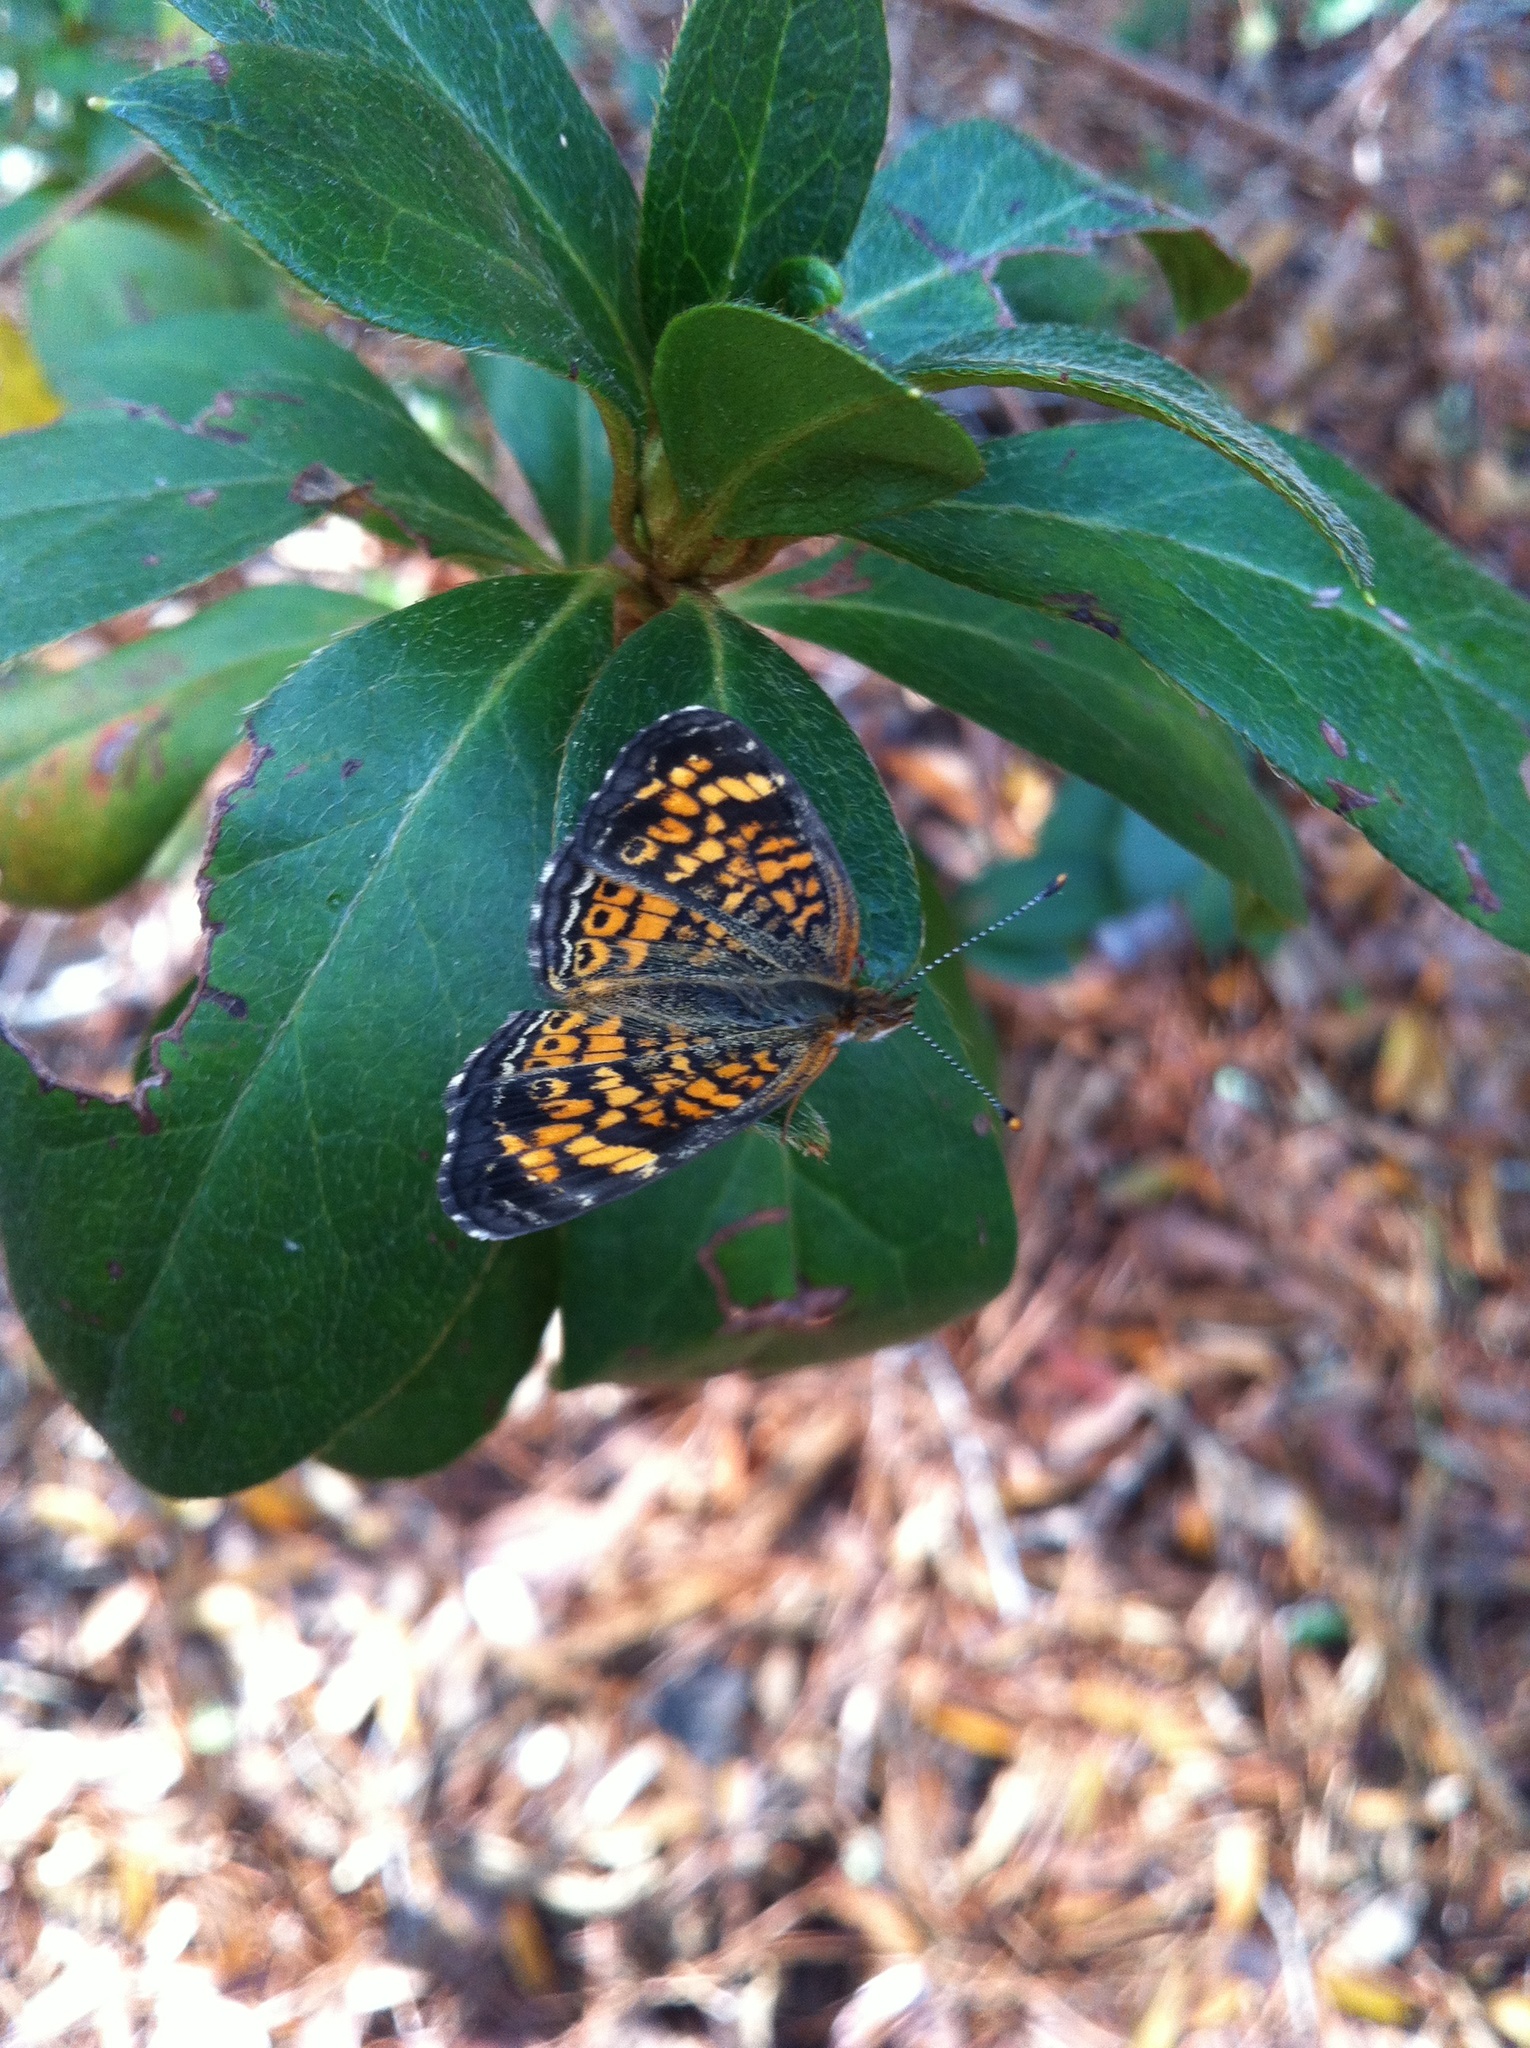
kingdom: Animalia
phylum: Arthropoda
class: Insecta
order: Lepidoptera
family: Nymphalidae
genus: Phyciodes
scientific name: Phyciodes tharos
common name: Pearl crescent
